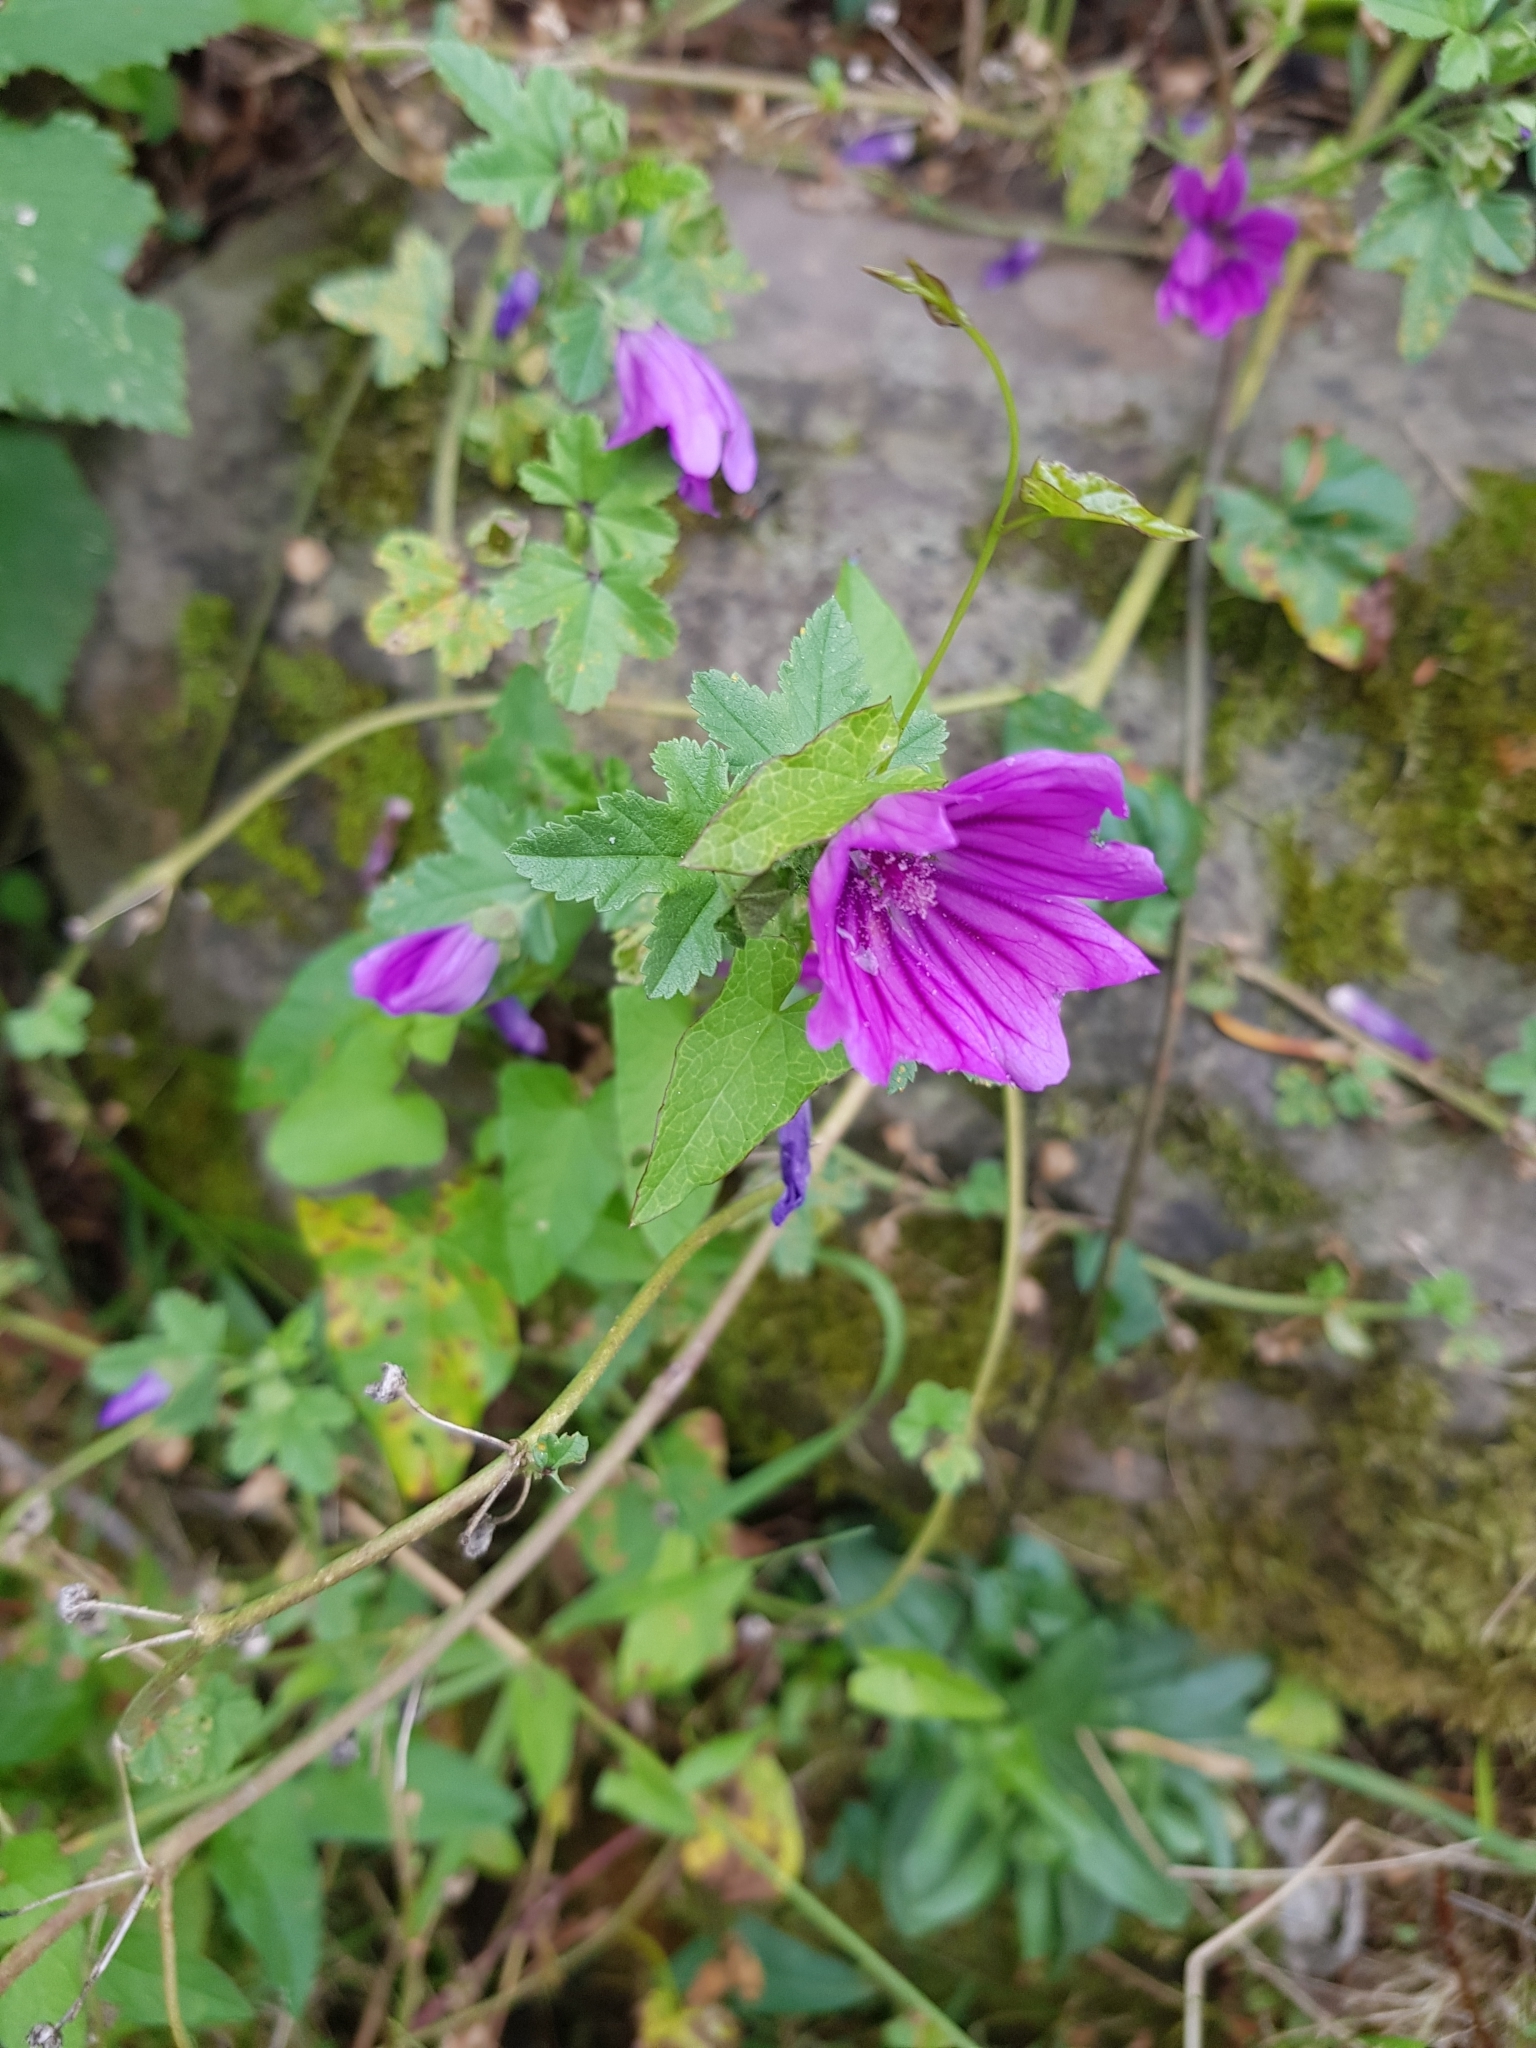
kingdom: Plantae
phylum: Tracheophyta
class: Magnoliopsida
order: Malvales
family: Malvaceae
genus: Malva
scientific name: Malva sylvestris
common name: Common mallow
